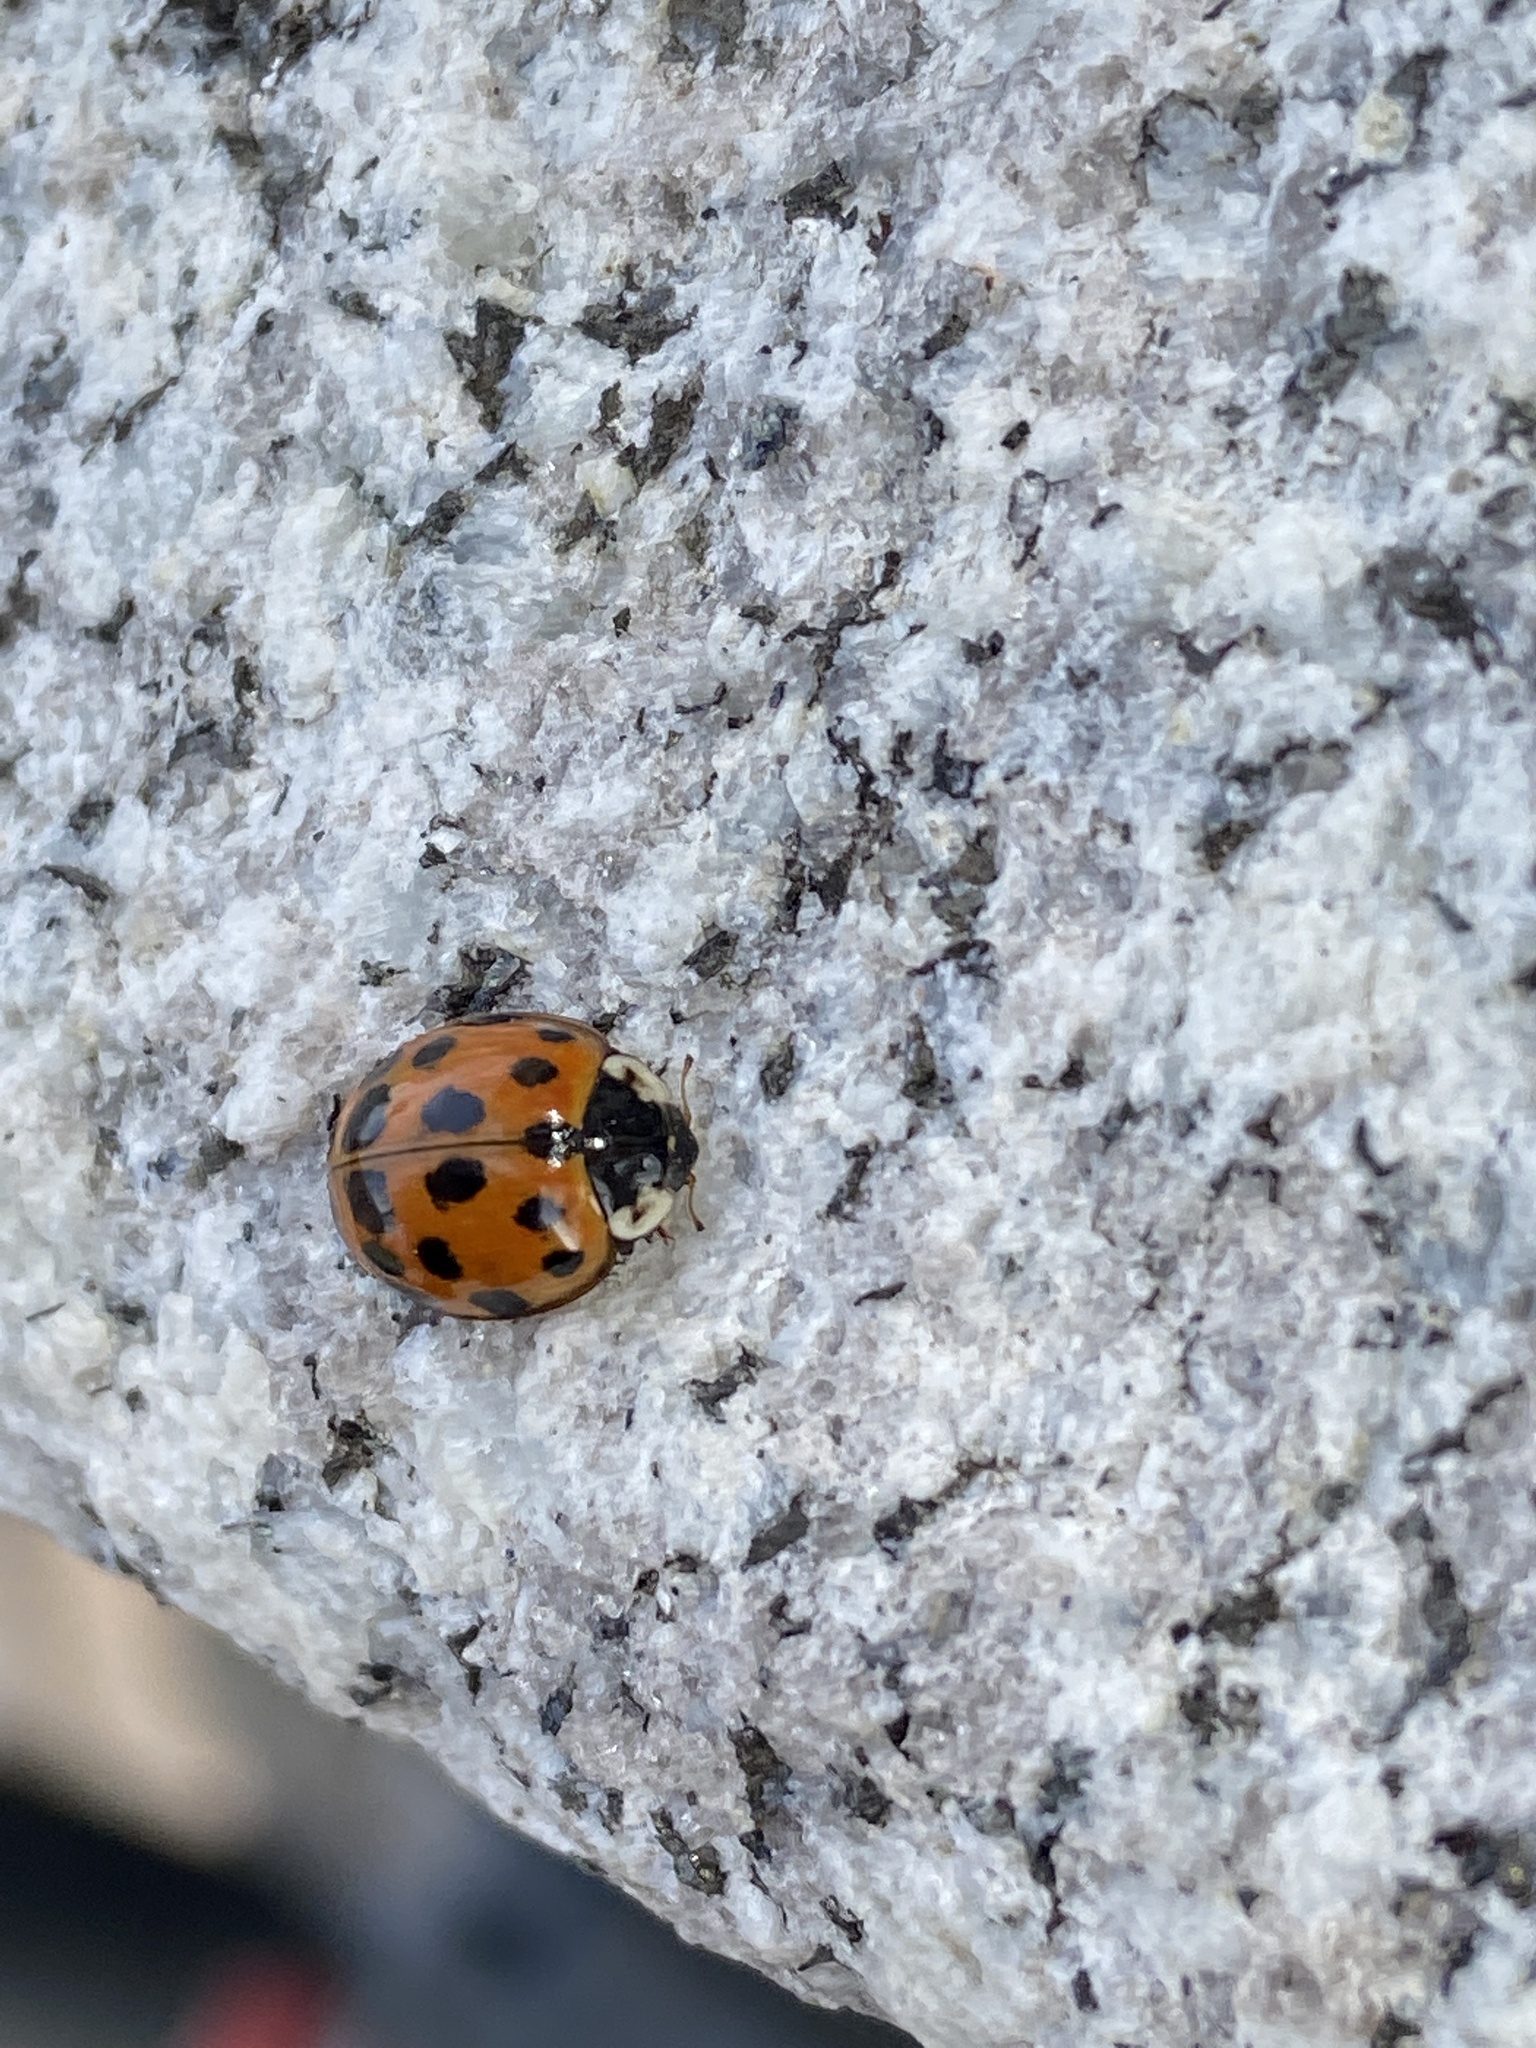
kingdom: Animalia
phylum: Arthropoda
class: Insecta
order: Coleoptera
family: Coccinellidae
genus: Harmonia
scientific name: Harmonia axyridis
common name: Harlequin ladybird
